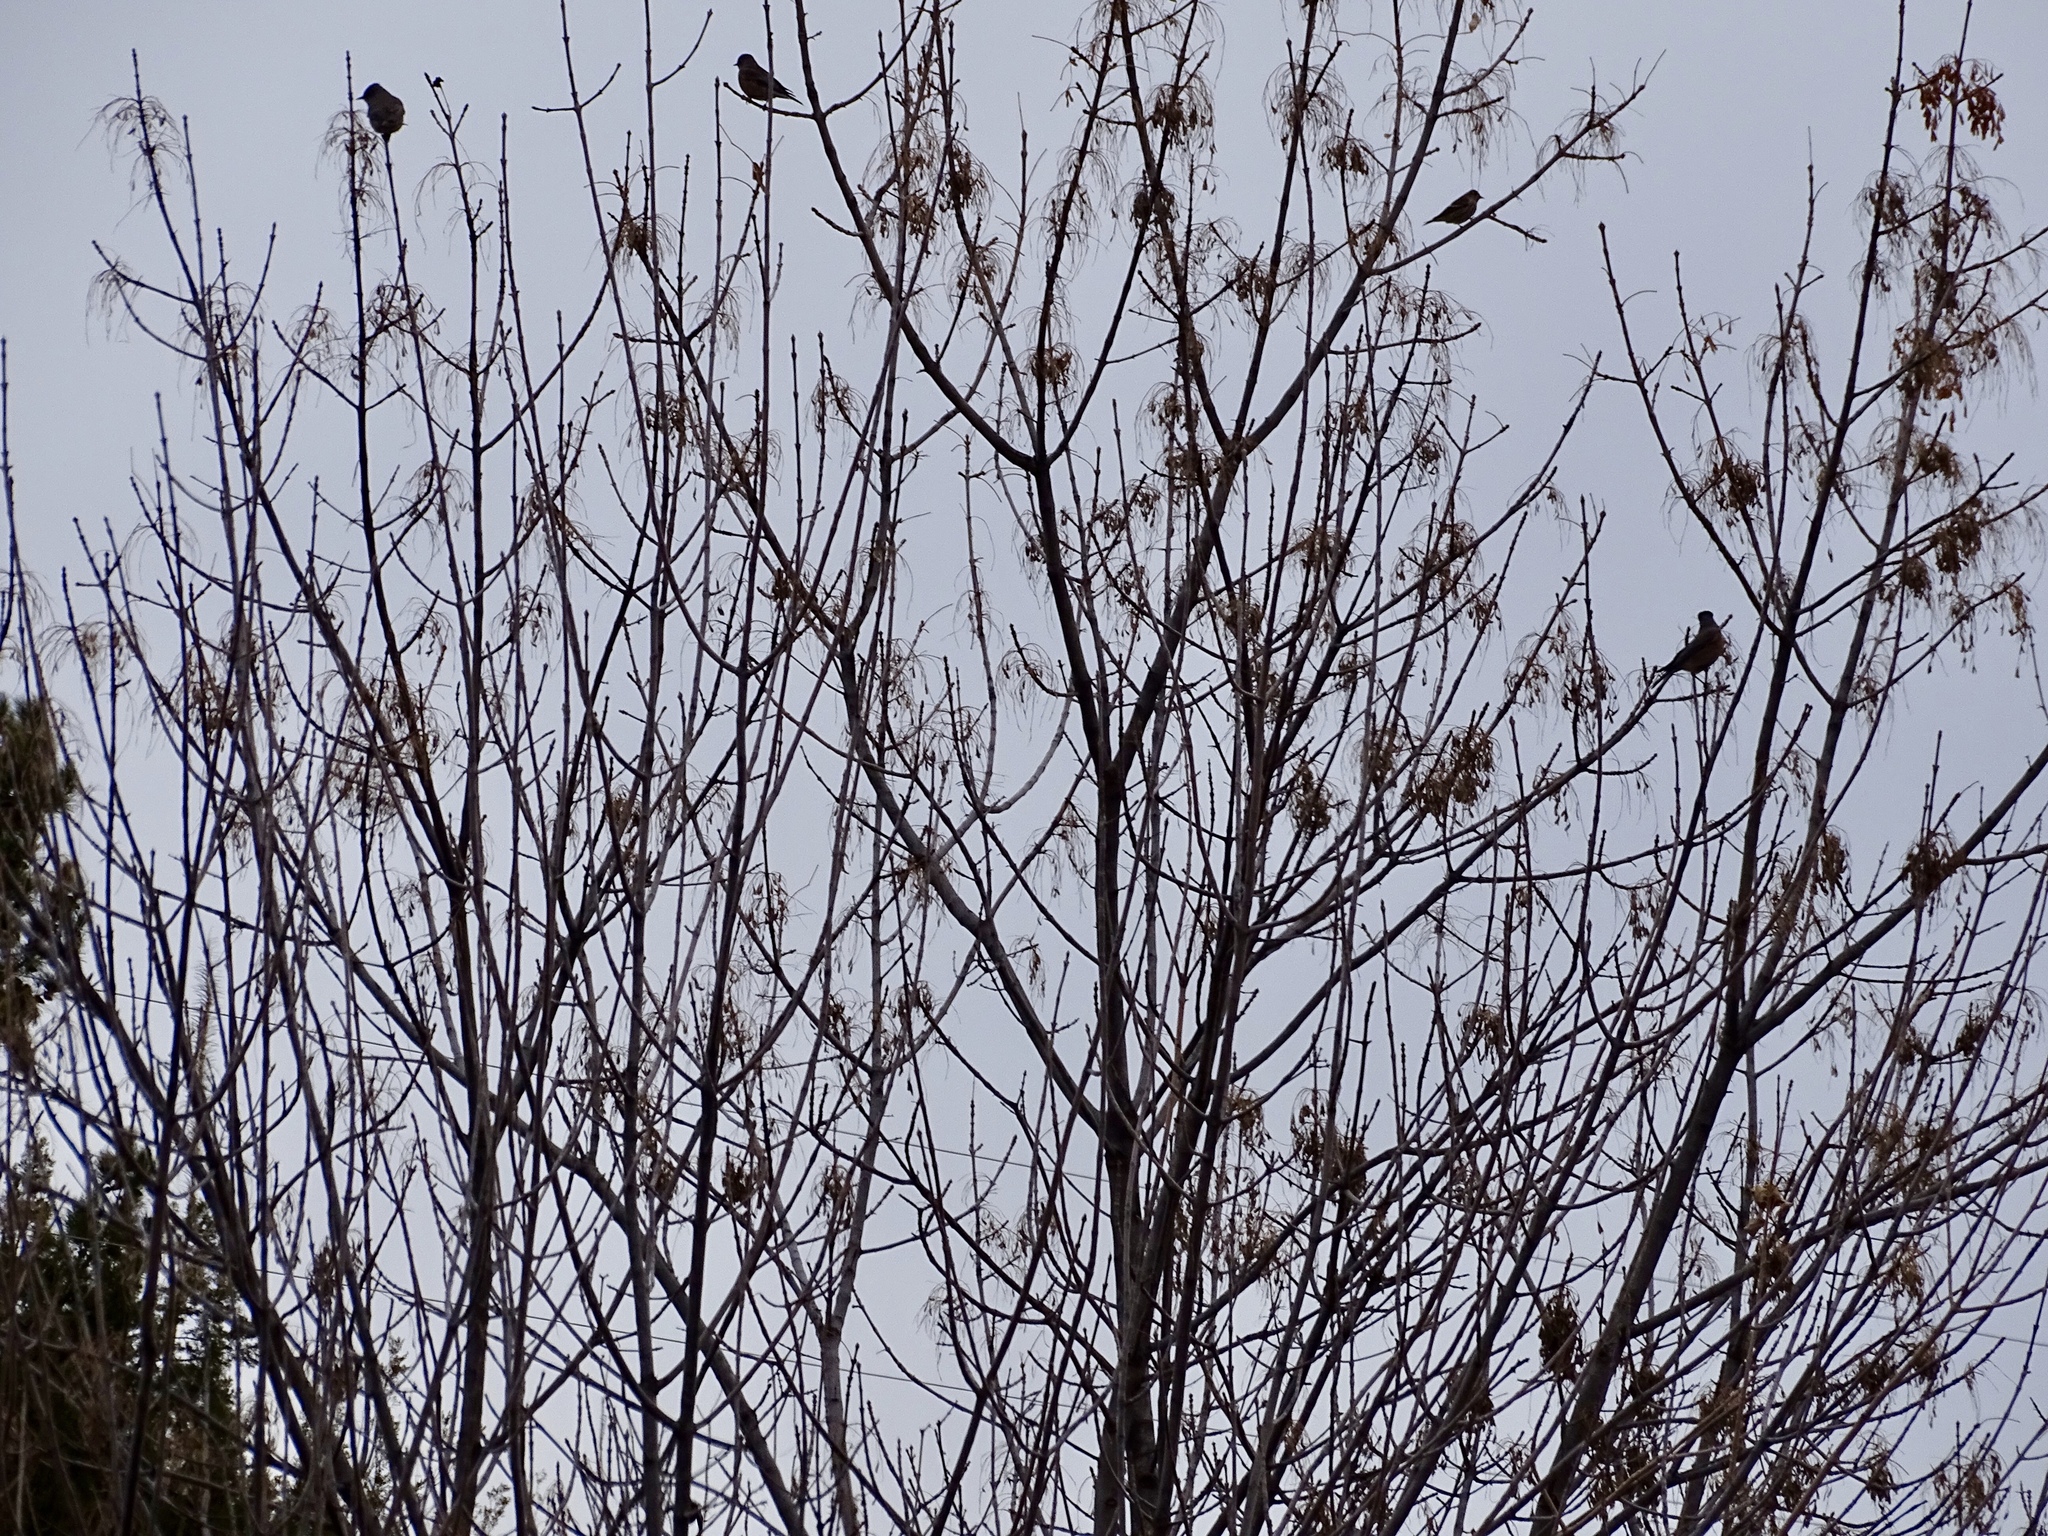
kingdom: Animalia
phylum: Chordata
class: Aves
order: Passeriformes
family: Turdidae
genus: Turdus
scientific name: Turdus migratorius
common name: American robin
